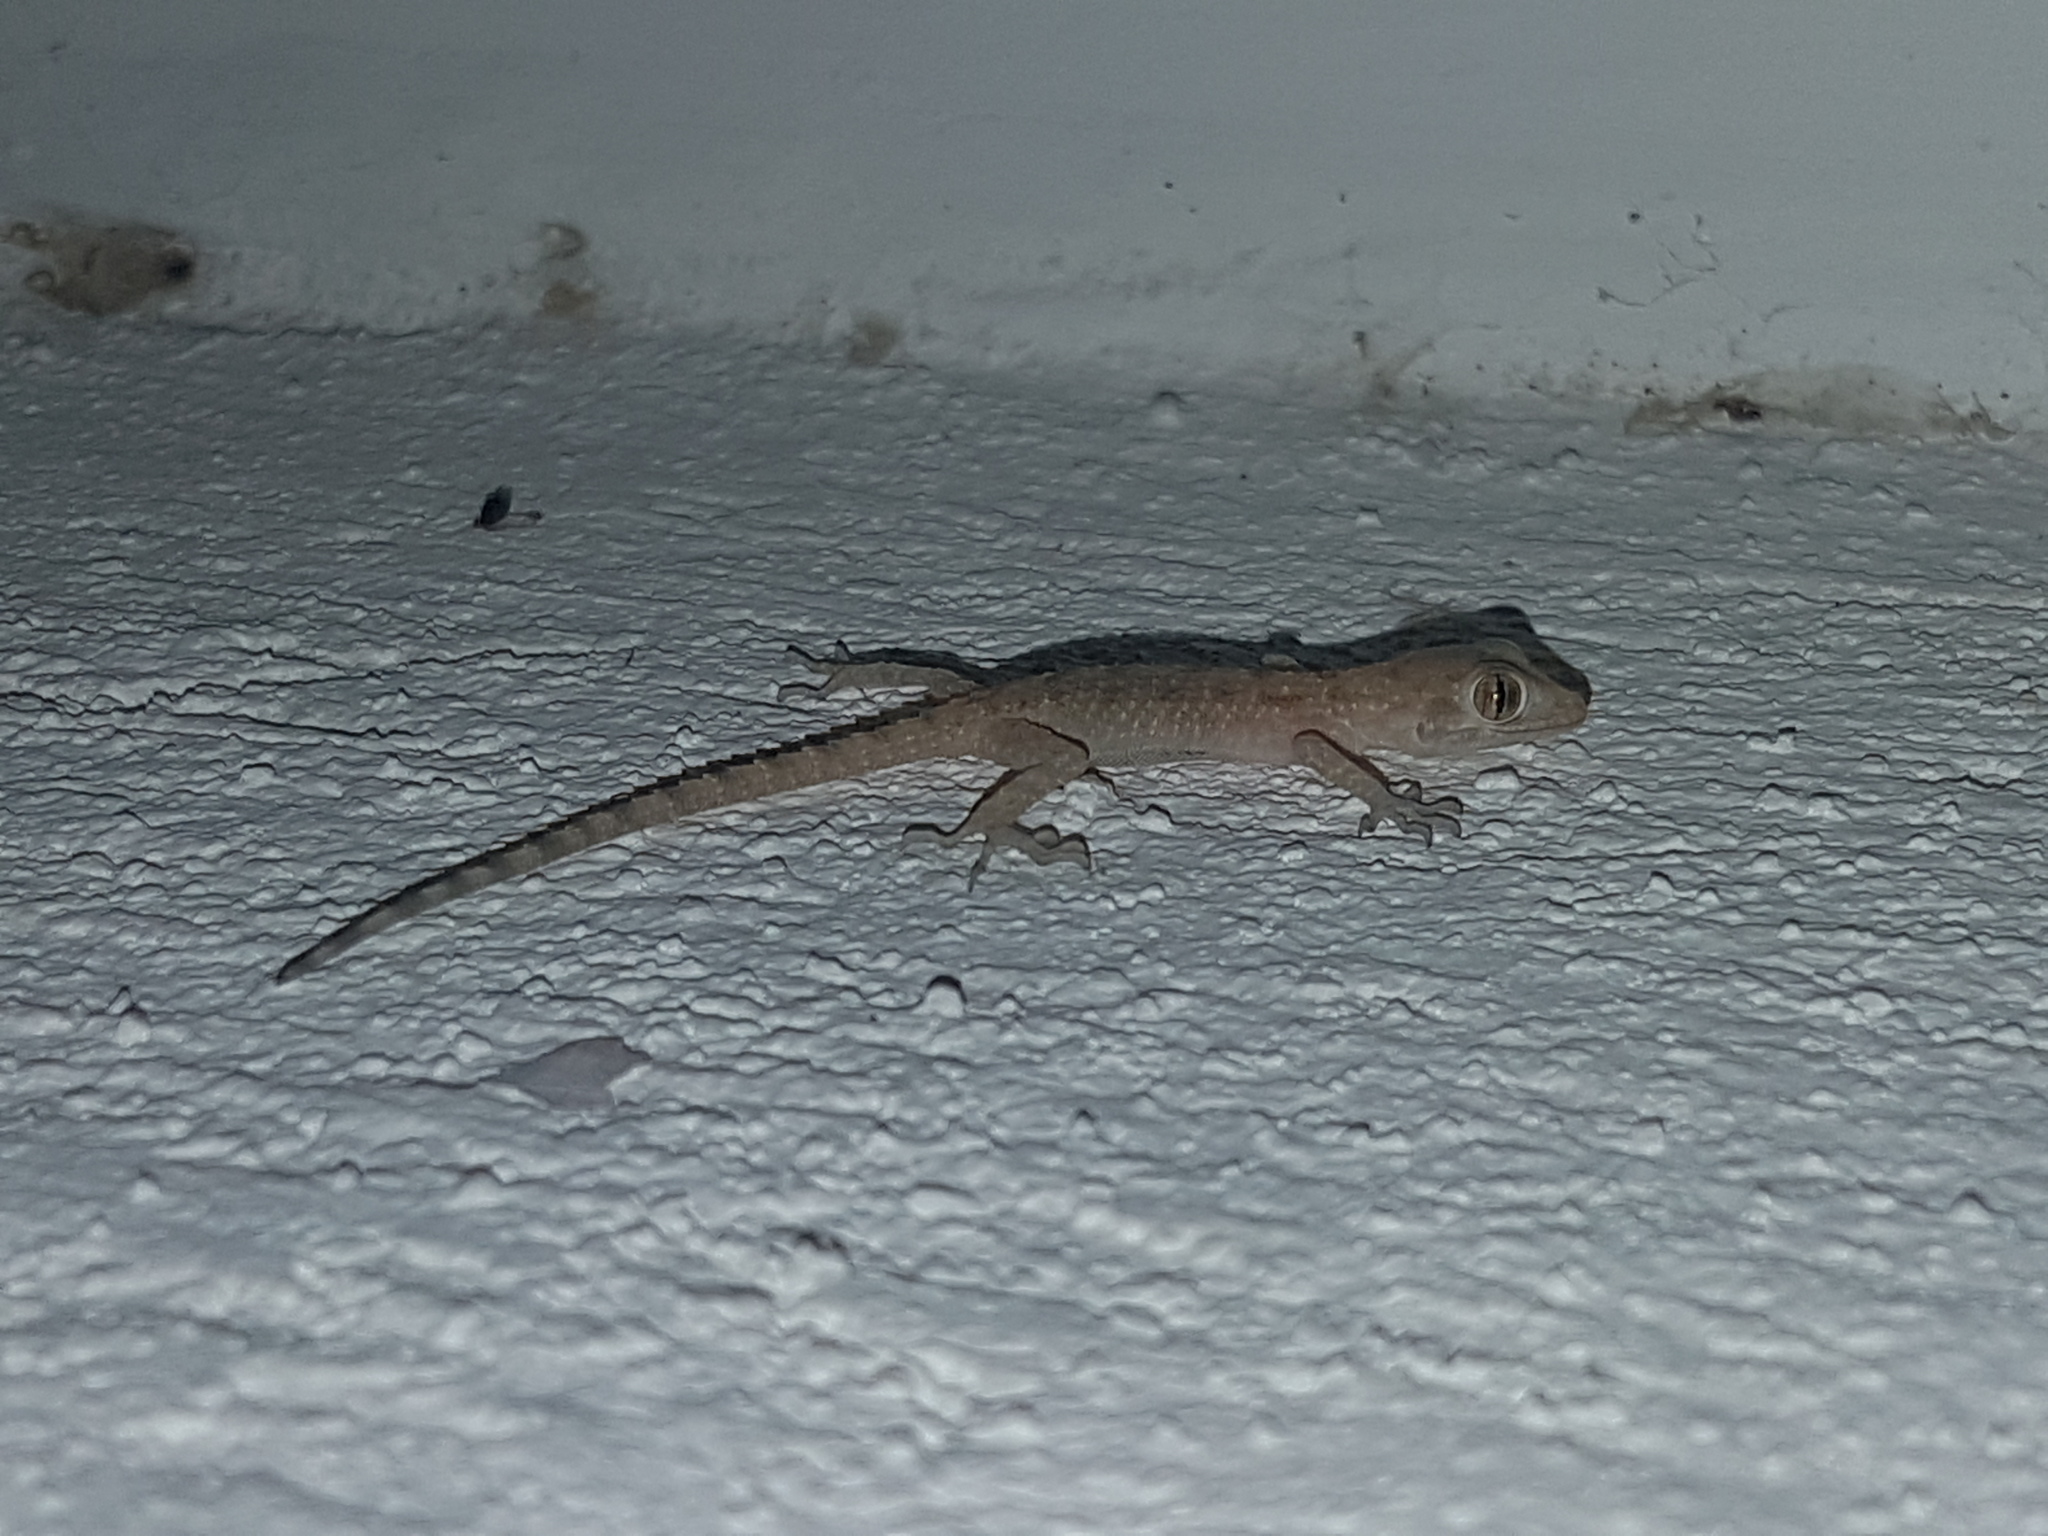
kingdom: Animalia
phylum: Chordata
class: Squamata
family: Gekkonidae
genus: Cyrtopodion
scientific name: Cyrtopodion scabrum
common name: Rough-tailed gecko
